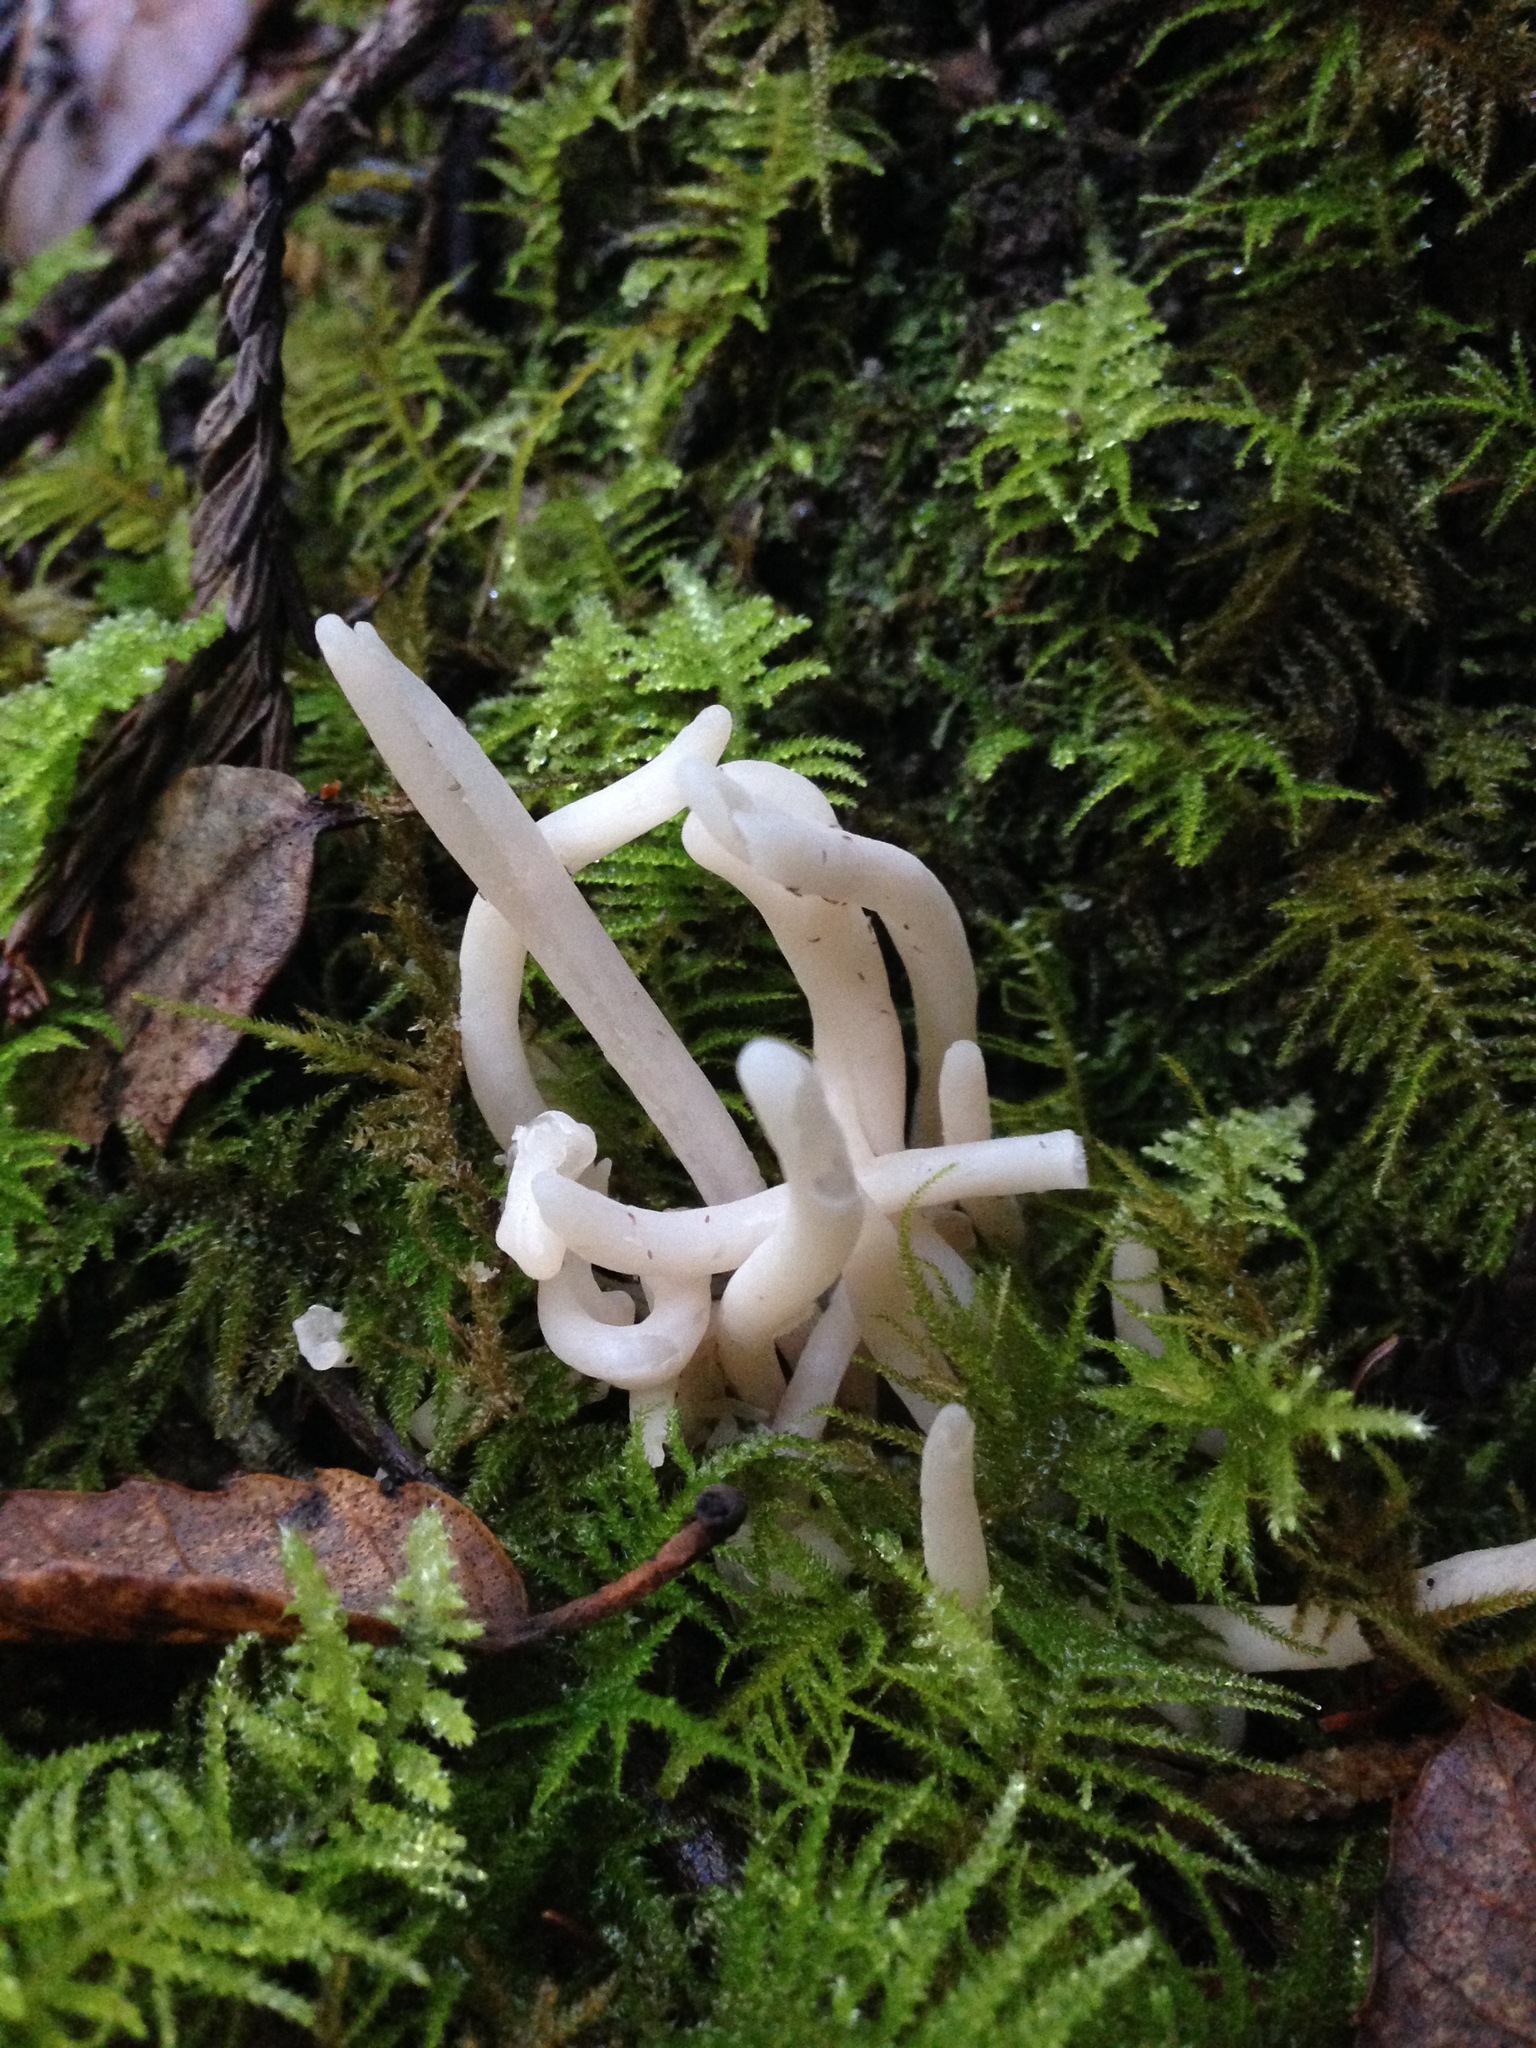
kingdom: Fungi
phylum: Basidiomycota
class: Agaricomycetes
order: Agaricales
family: Clavariaceae
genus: Clavaria
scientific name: Clavaria fragilis
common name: White spindles
